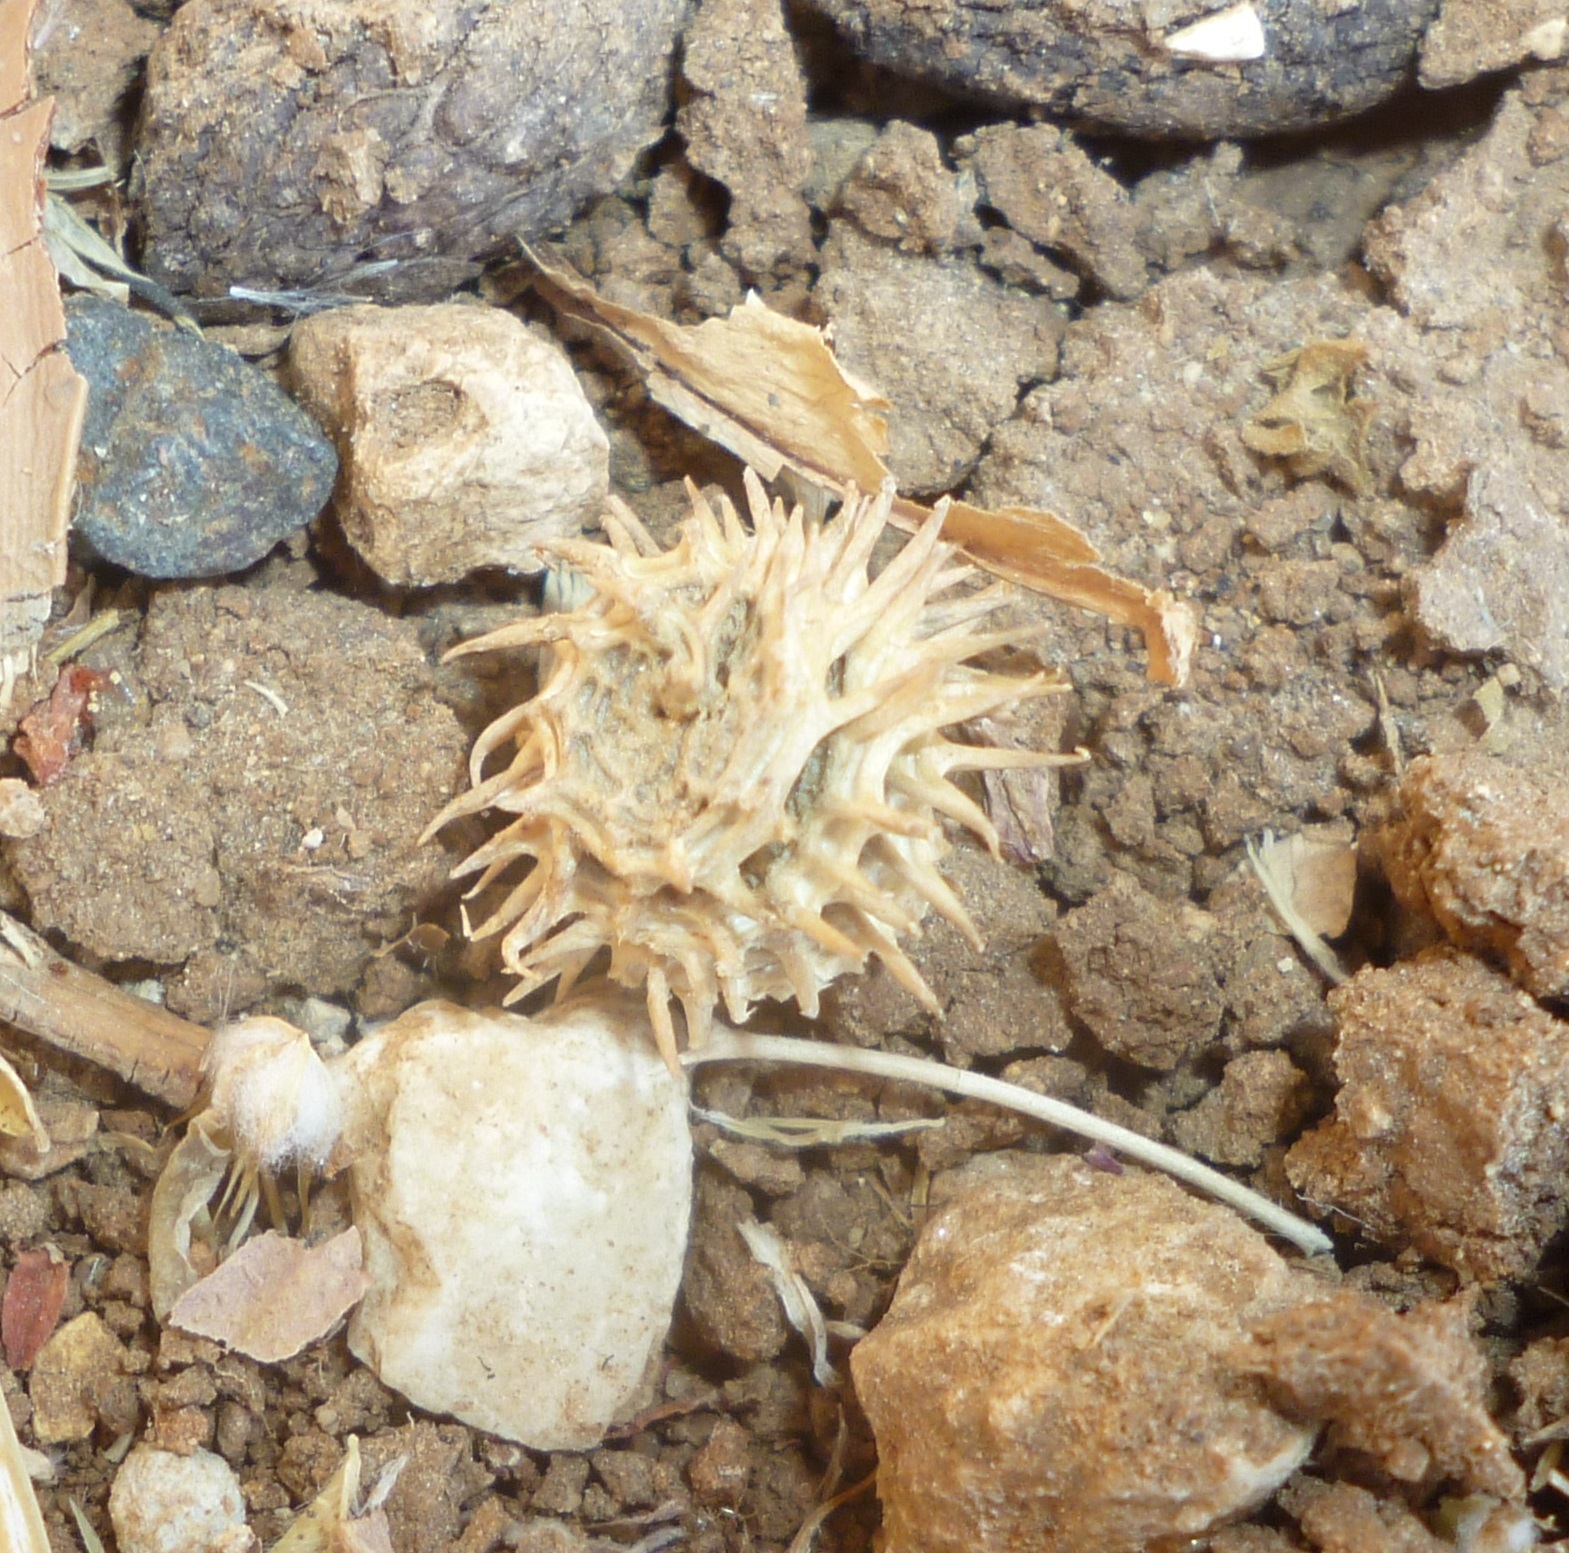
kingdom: Plantae
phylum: Tracheophyta
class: Magnoliopsida
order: Fabales
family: Fabaceae
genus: Medicago
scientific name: Medicago polymorpha
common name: Burclover
